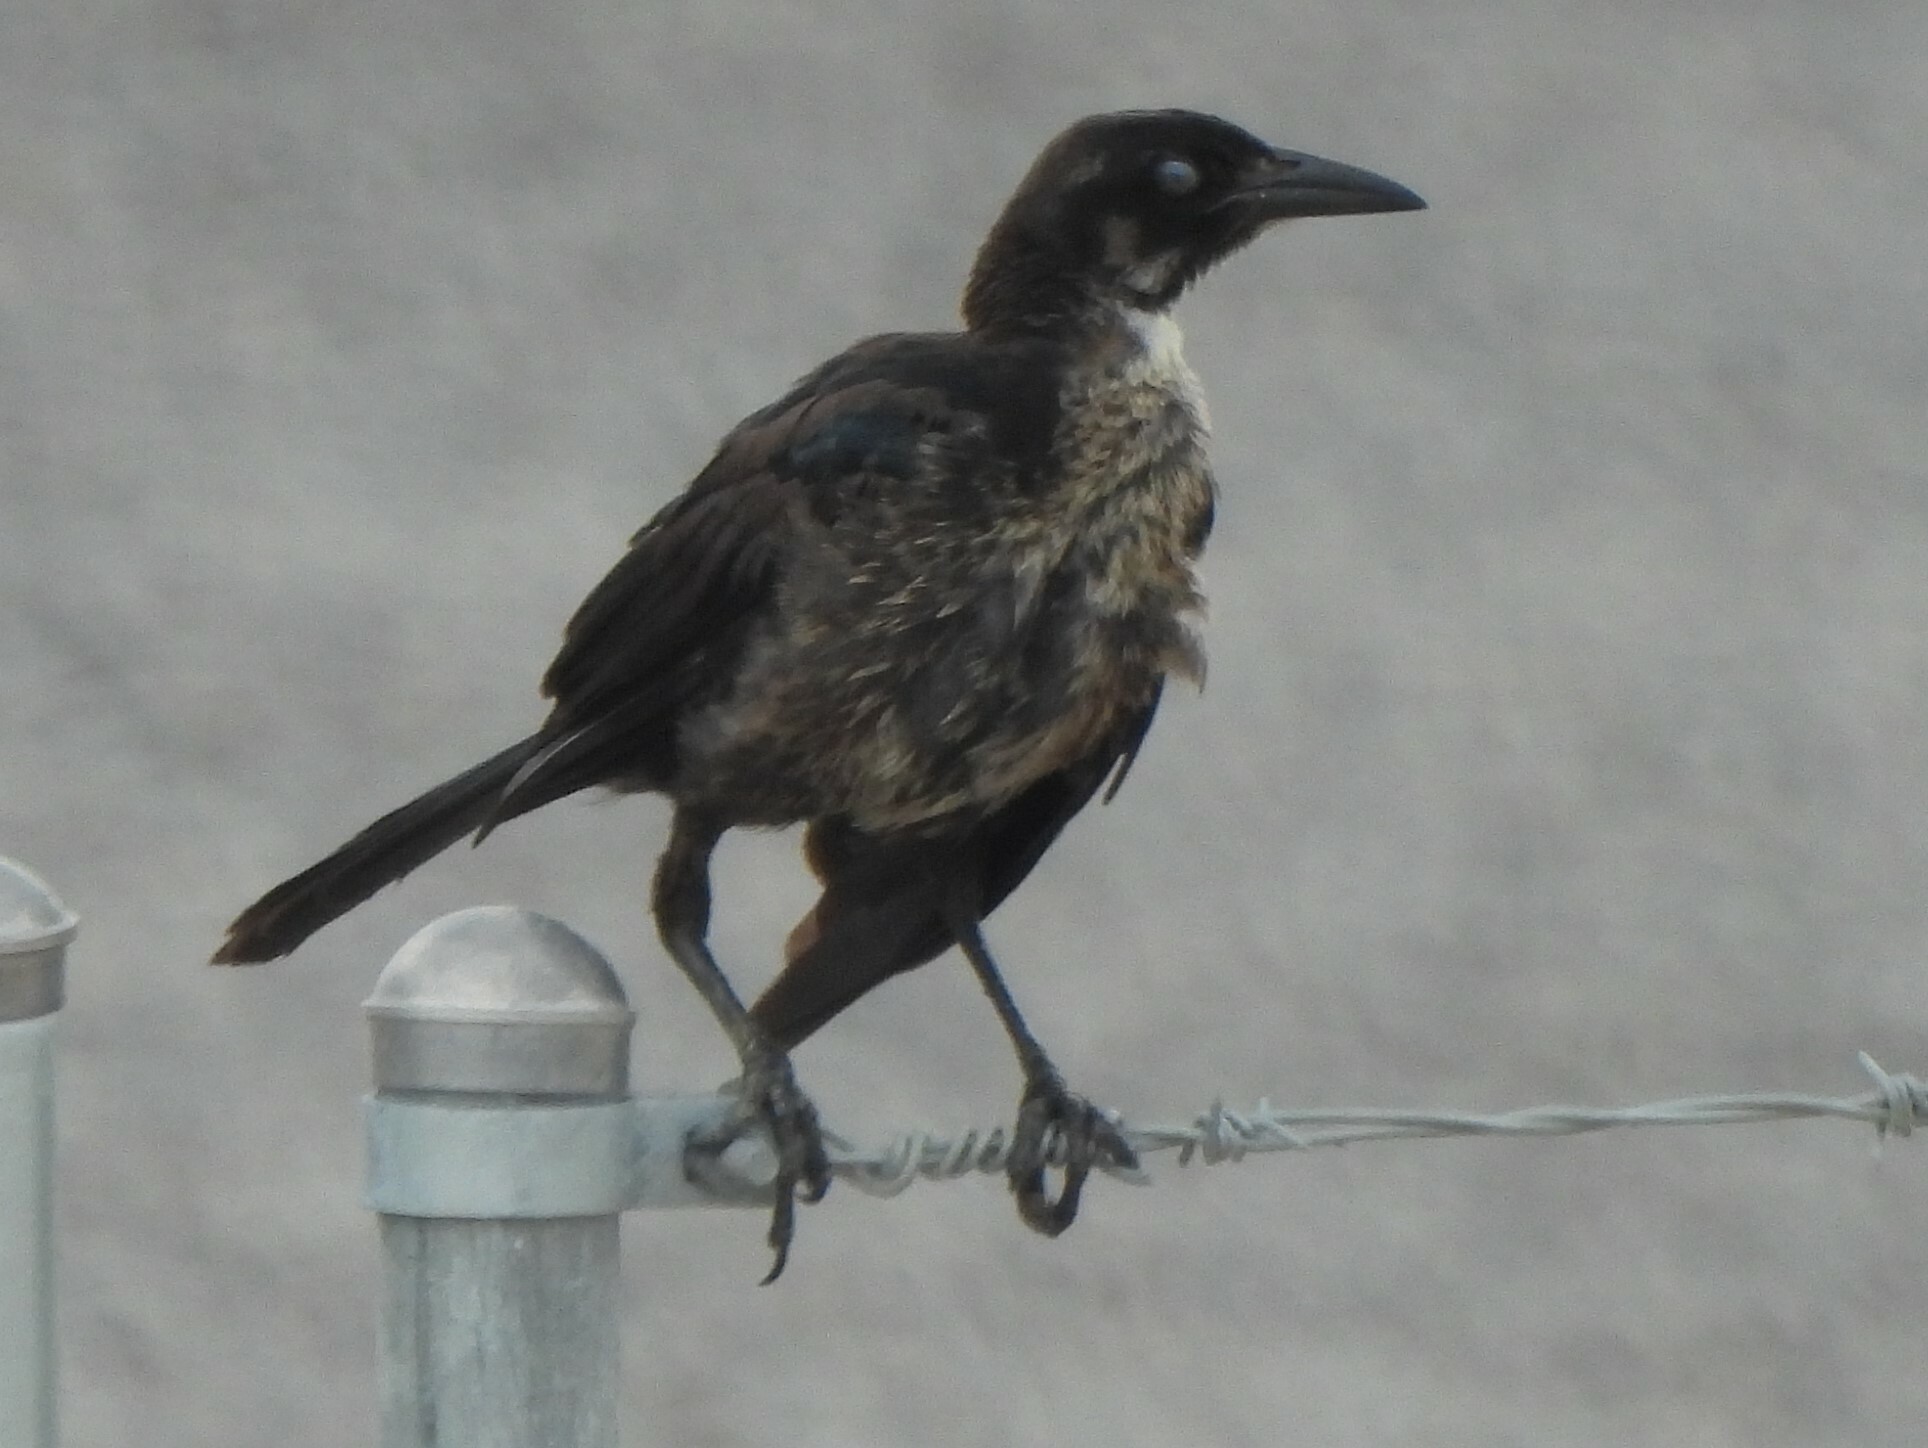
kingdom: Animalia
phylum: Chordata
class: Aves
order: Passeriformes
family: Icteridae
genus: Quiscalus
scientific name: Quiscalus mexicanus
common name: Great-tailed grackle
